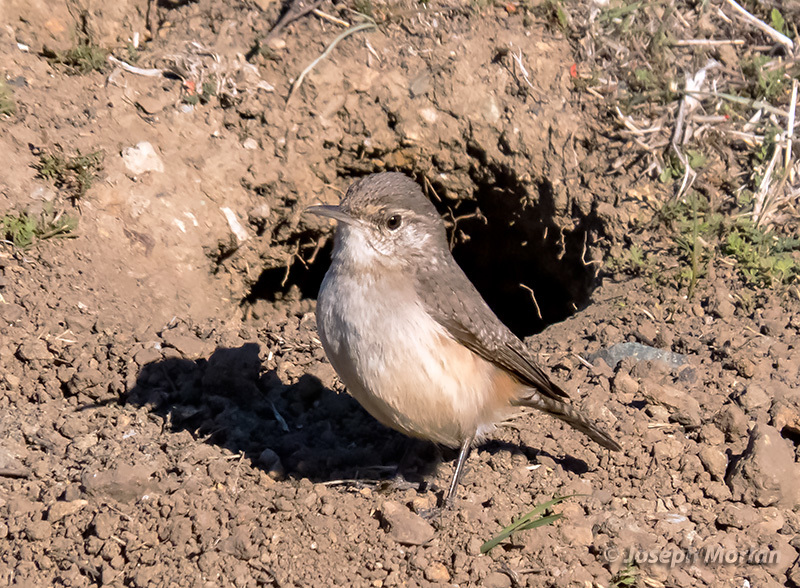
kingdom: Animalia
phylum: Chordata
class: Aves
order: Passeriformes
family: Troglodytidae
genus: Salpinctes
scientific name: Salpinctes obsoletus
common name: Rock wren
